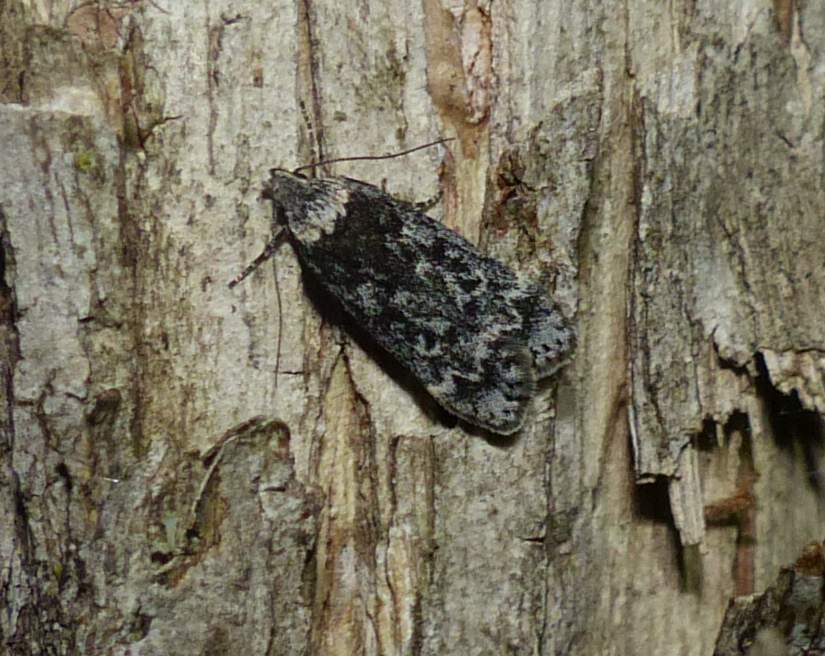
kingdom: Animalia
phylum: Arthropoda
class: Insecta
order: Lepidoptera
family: Gelechiidae
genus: Anacampsis
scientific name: Anacampsis niveopulvella
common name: Pale-headed aspen leafroller moth
